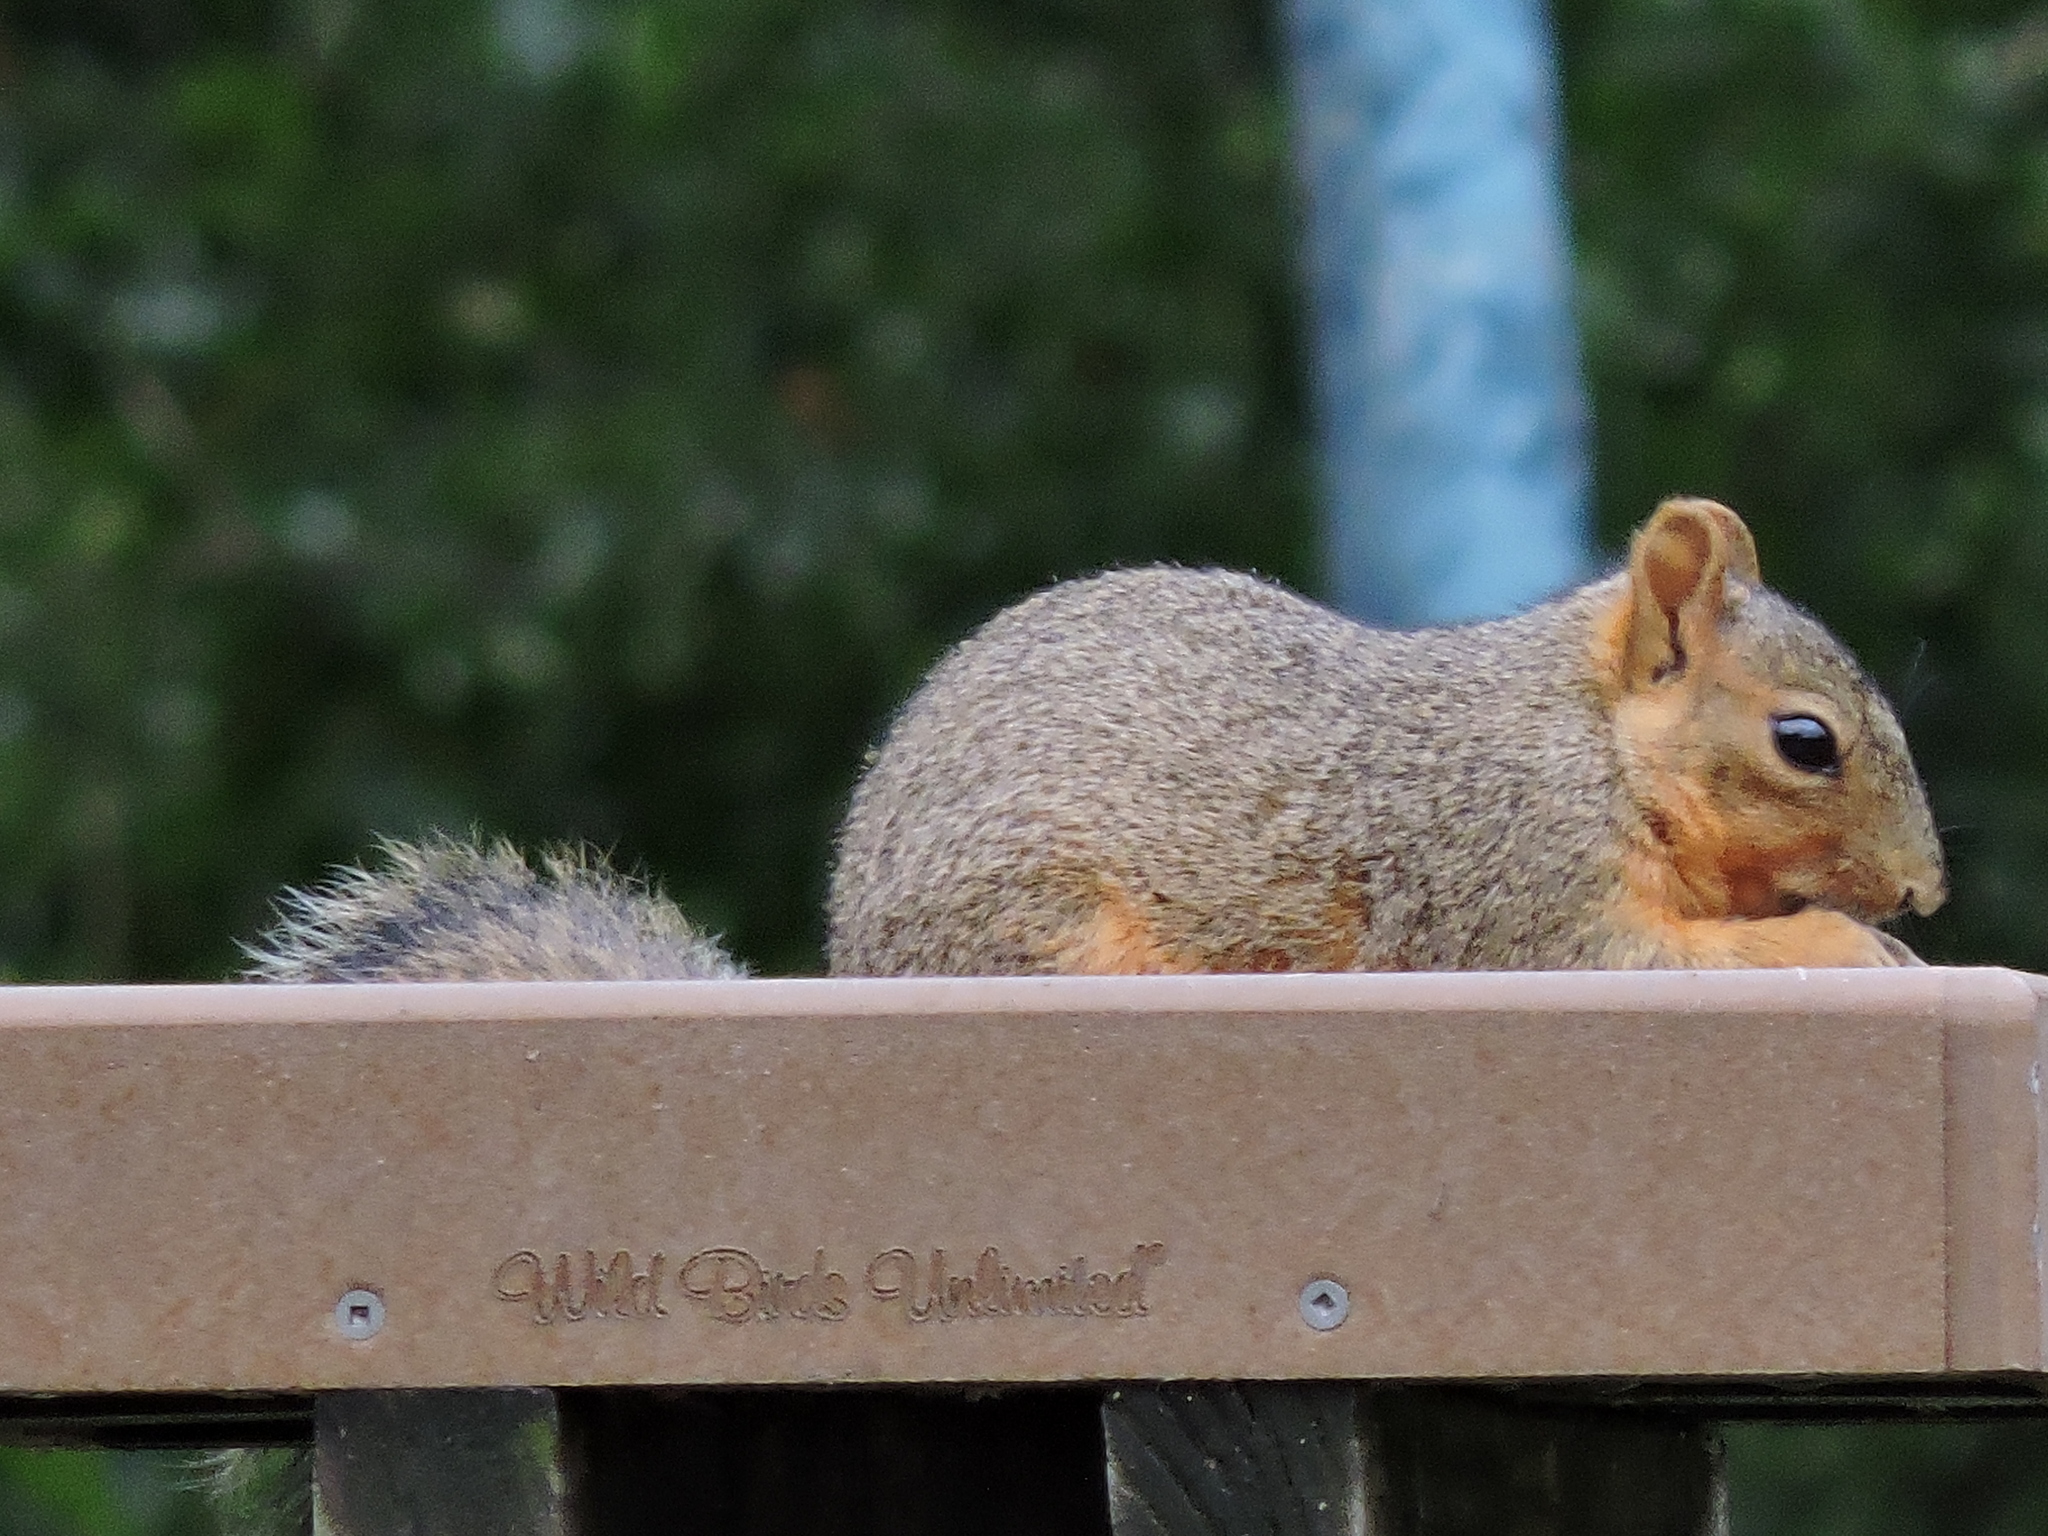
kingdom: Animalia
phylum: Chordata
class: Mammalia
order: Rodentia
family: Sciuridae
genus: Sciurus
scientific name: Sciurus niger
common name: Fox squirrel
